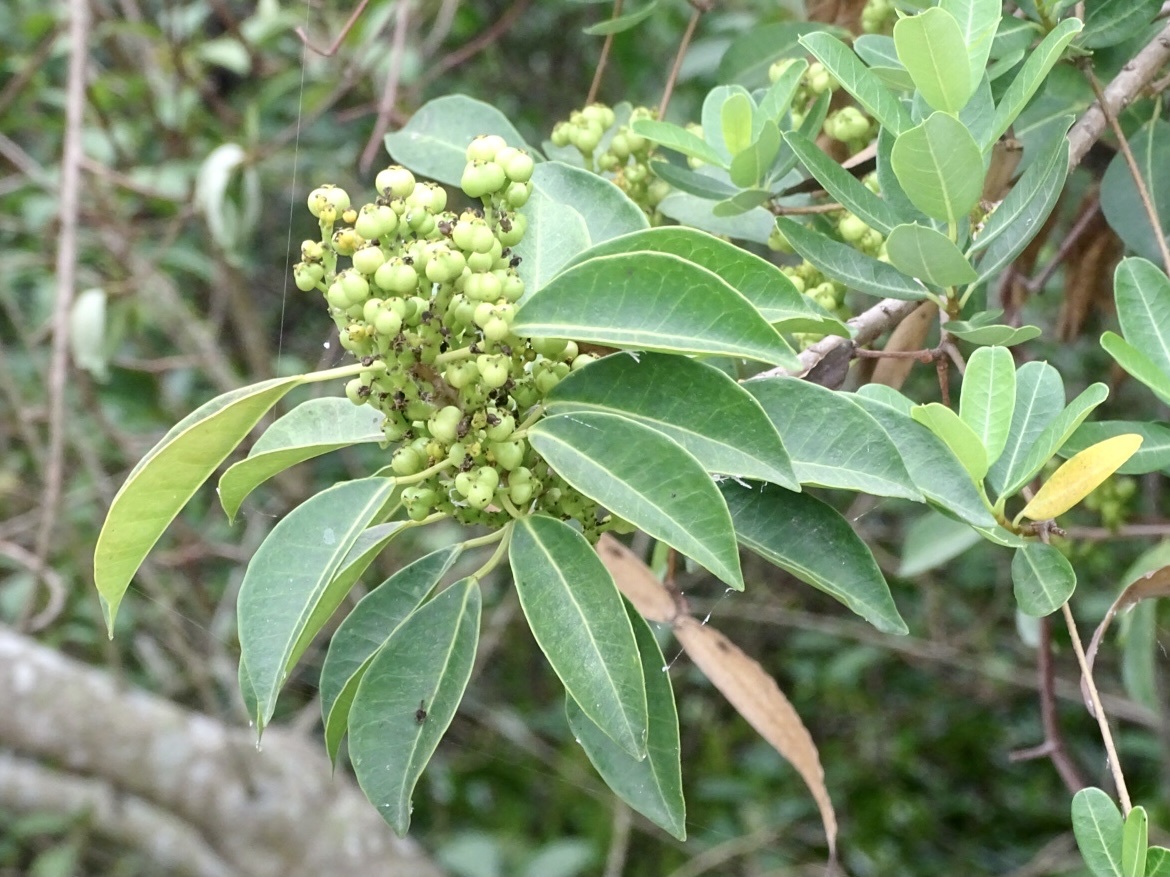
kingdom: Plantae
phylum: Tracheophyta
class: Magnoliopsida
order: Malpighiales
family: Euphorbiaceae
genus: Excoecaria
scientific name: Excoecaria agallocha
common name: River poisontree
